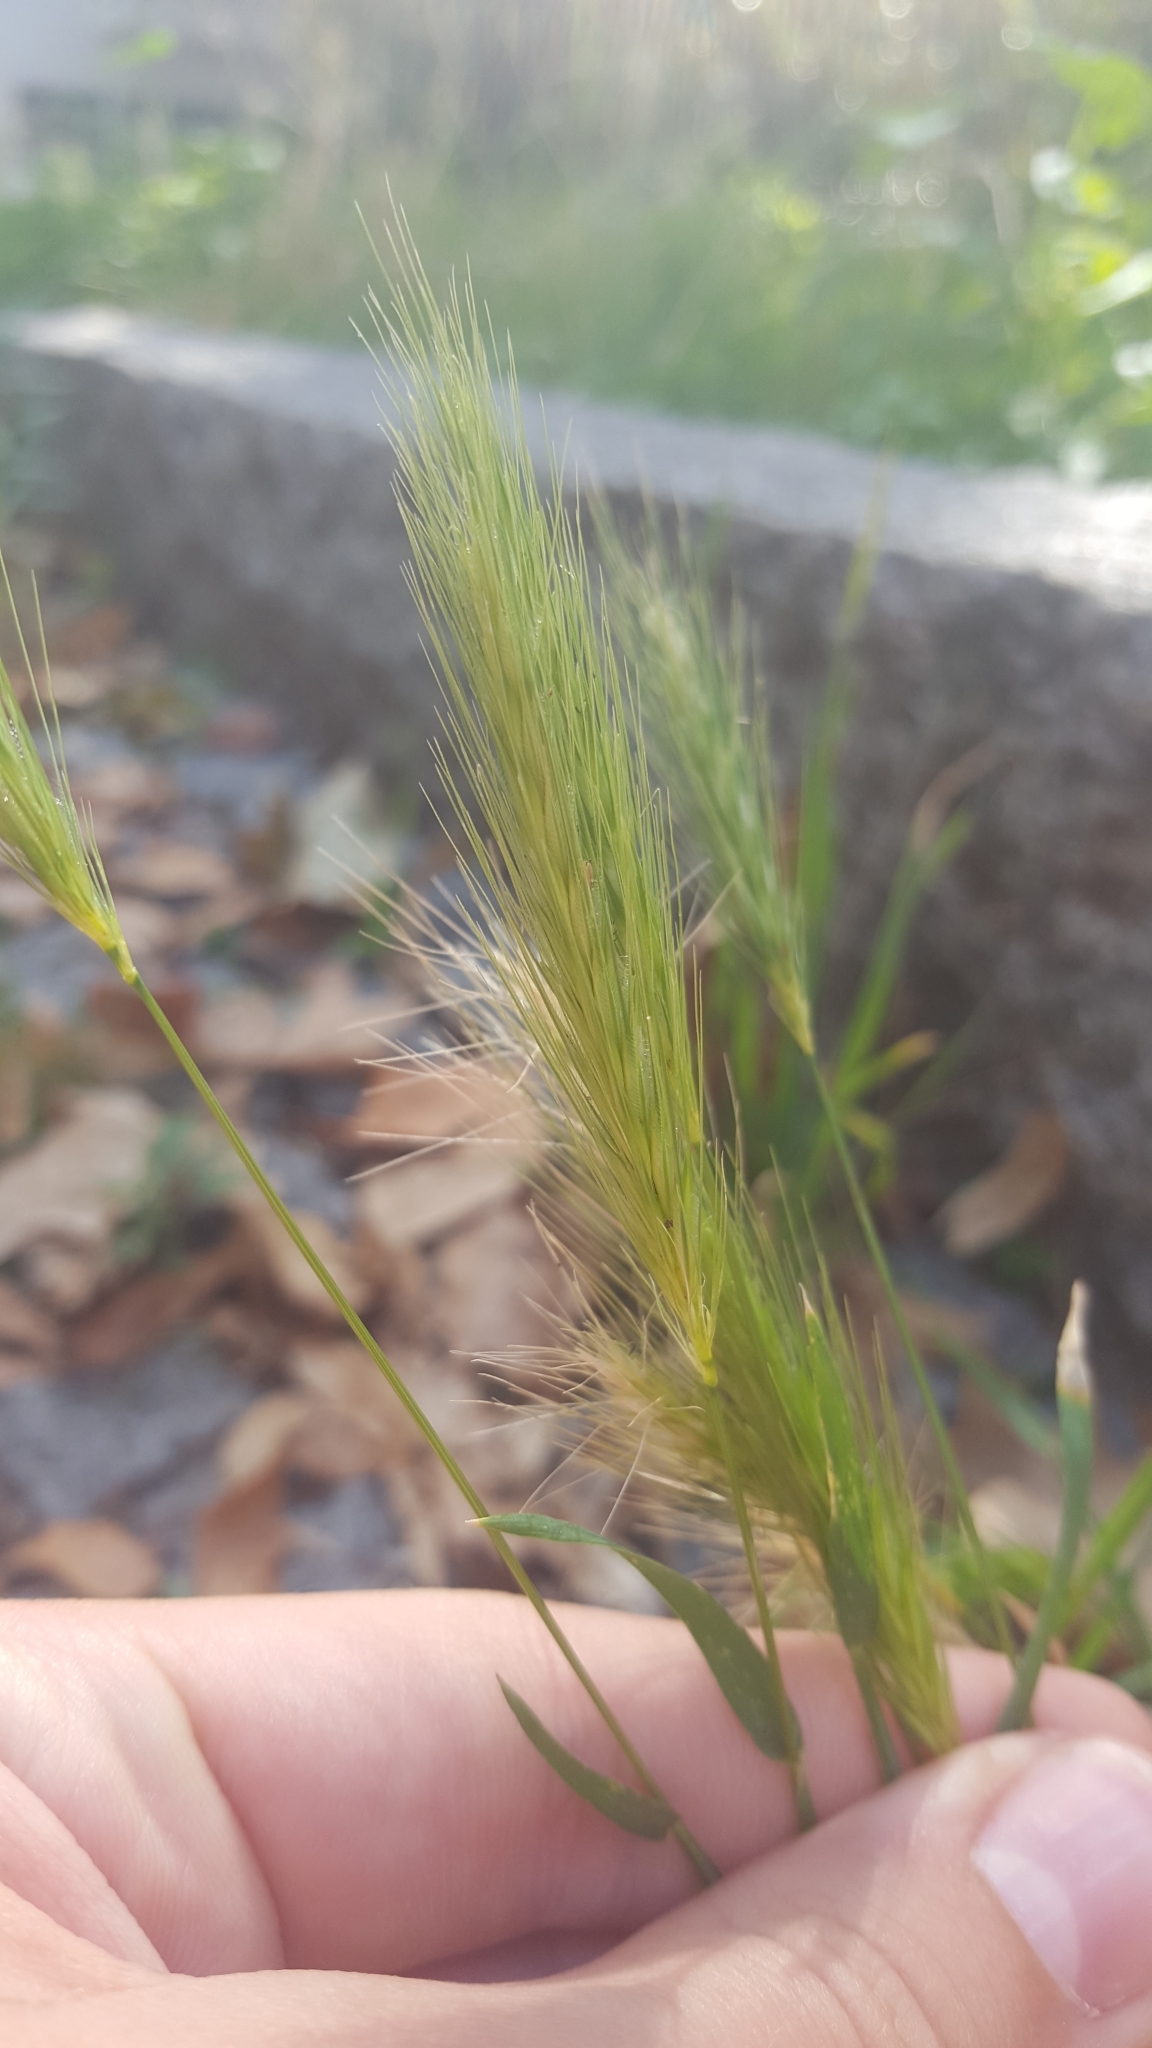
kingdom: Plantae
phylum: Tracheophyta
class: Liliopsida
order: Poales
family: Poaceae
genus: Hordeum
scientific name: Hordeum murinum
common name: Wall barley
